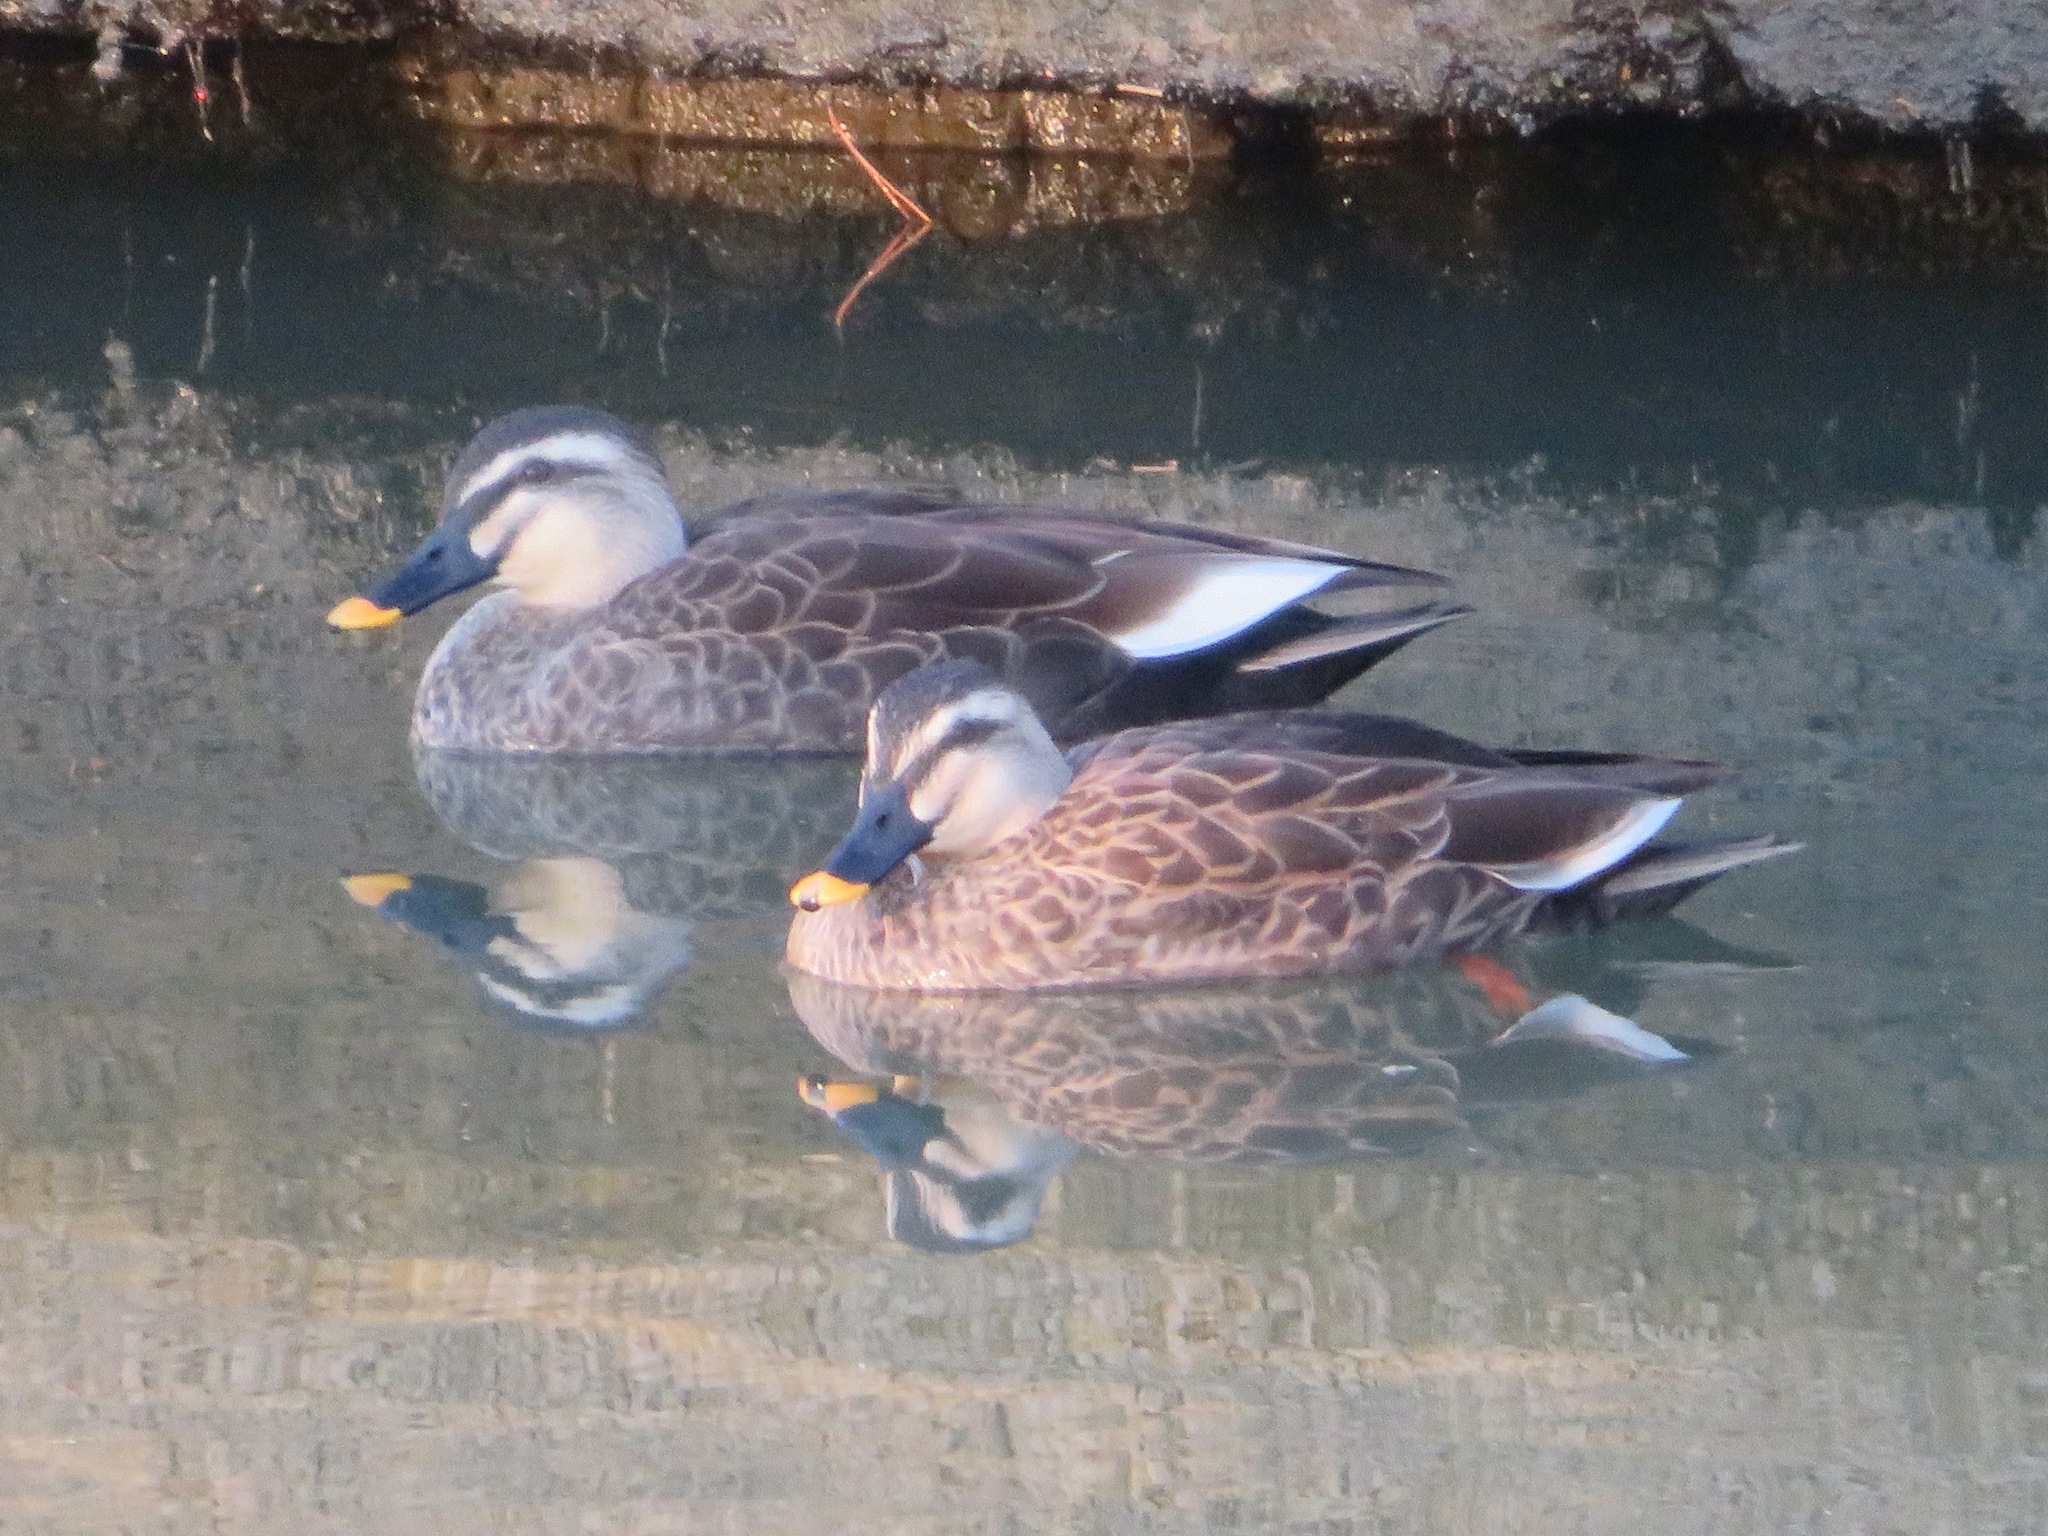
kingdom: Animalia
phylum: Chordata
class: Aves
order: Anseriformes
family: Anatidae
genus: Anas
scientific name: Anas zonorhyncha
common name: Eastern spot-billed duck
